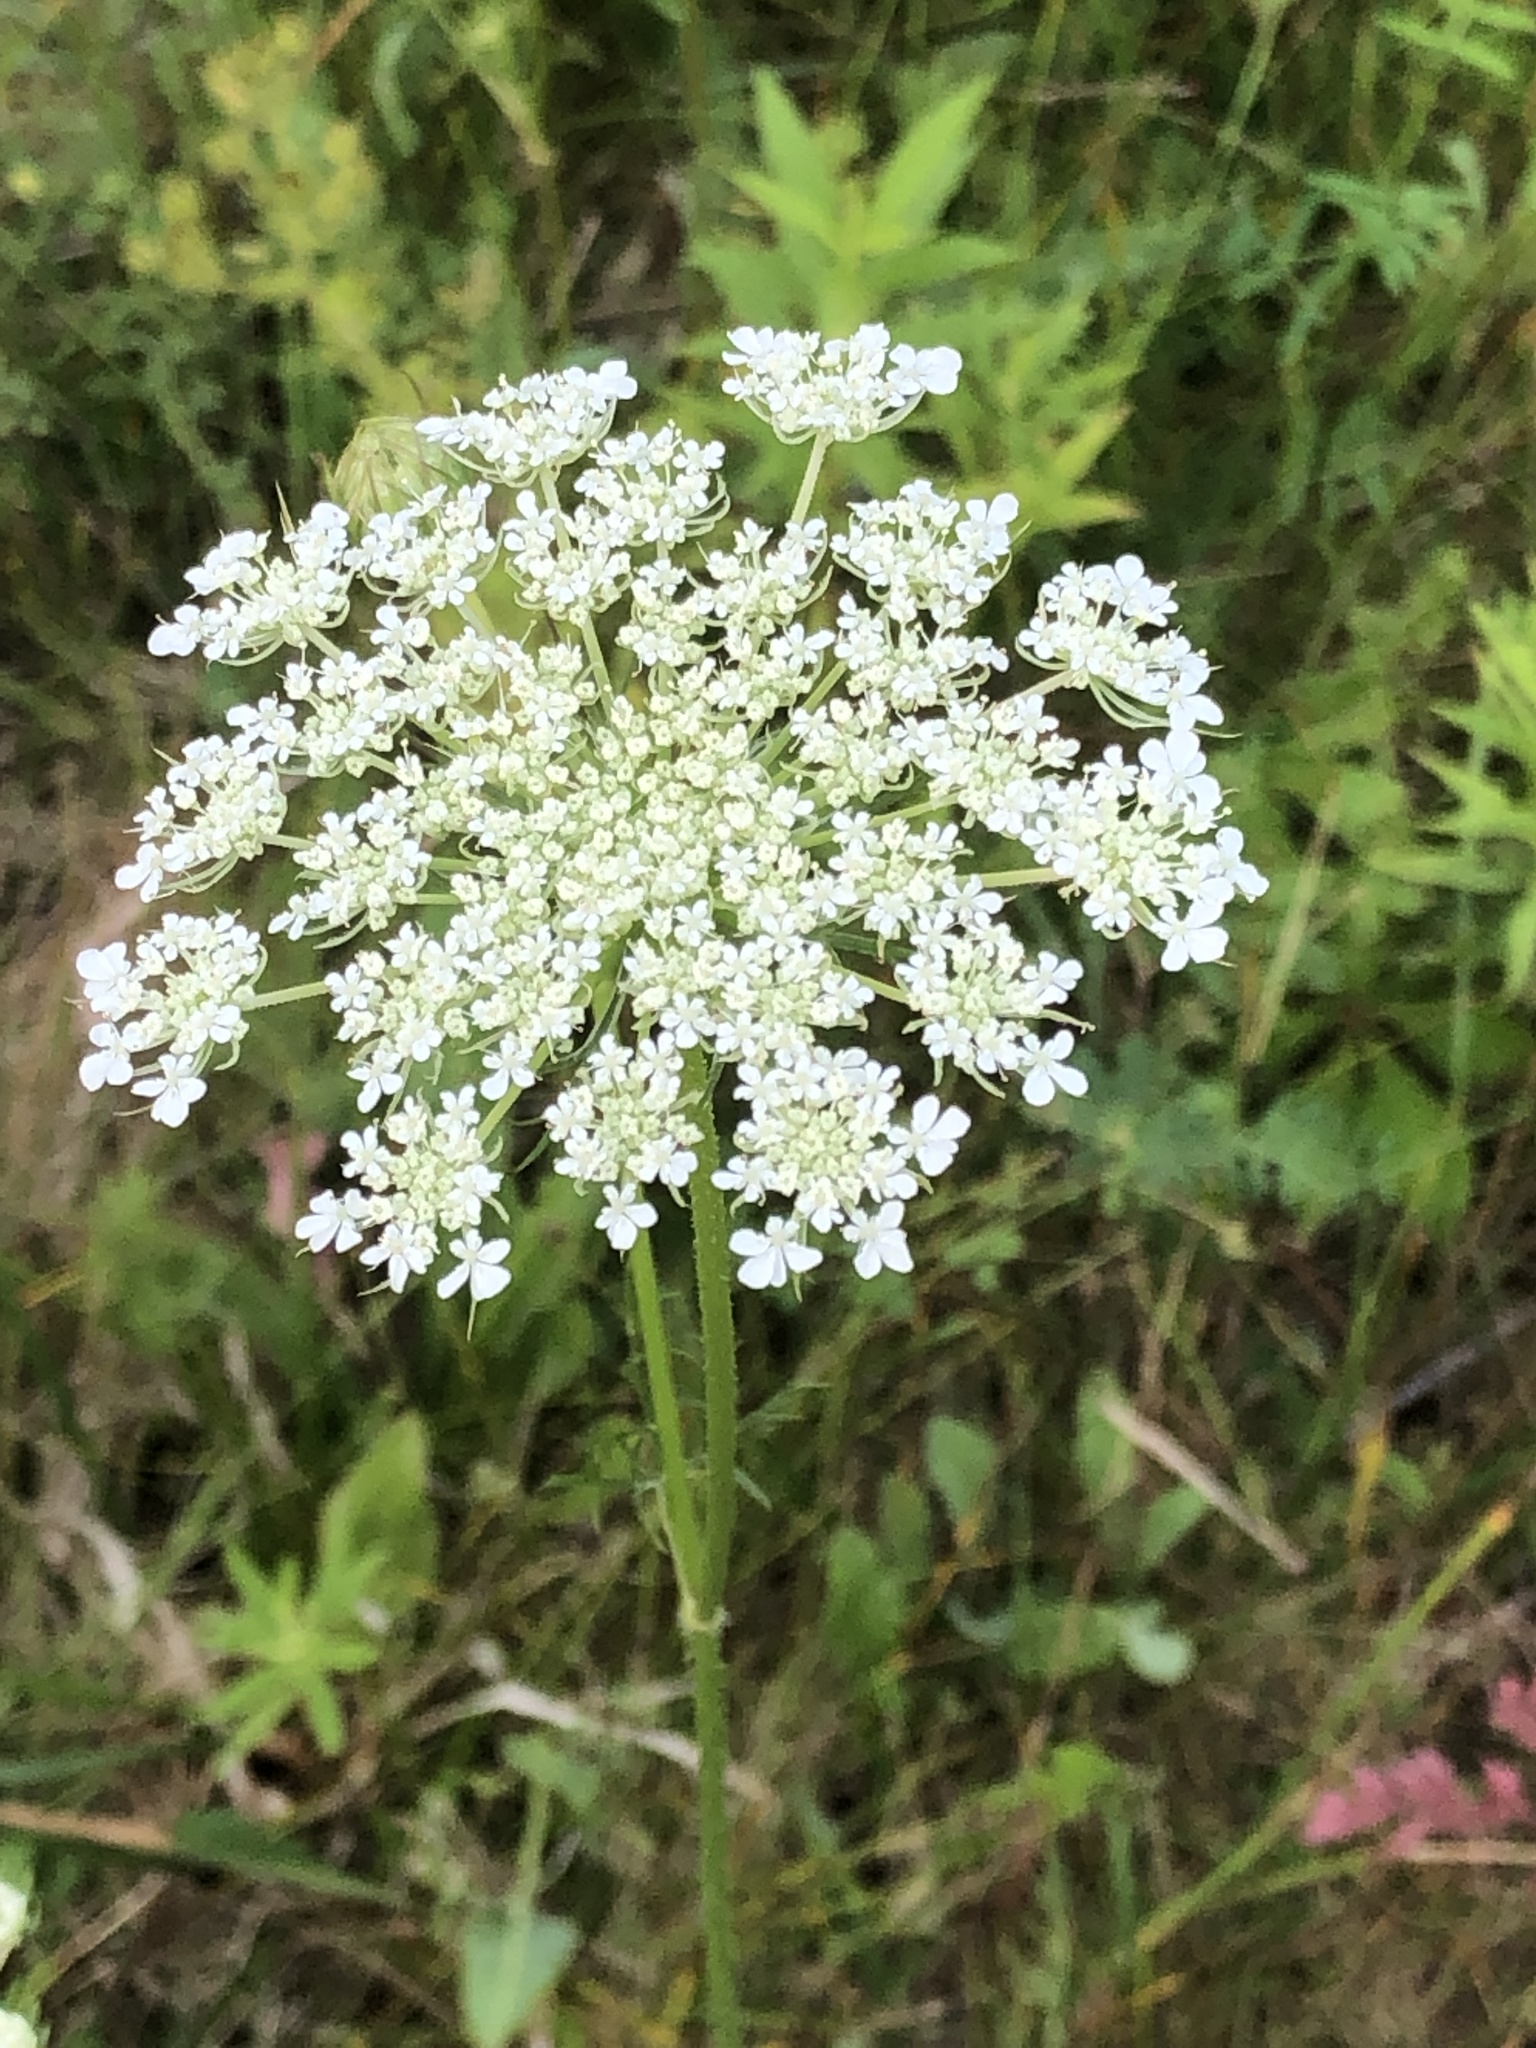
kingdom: Plantae
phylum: Tracheophyta
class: Magnoliopsida
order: Apiales
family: Apiaceae
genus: Daucus
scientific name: Daucus carota
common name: Wild carrot
